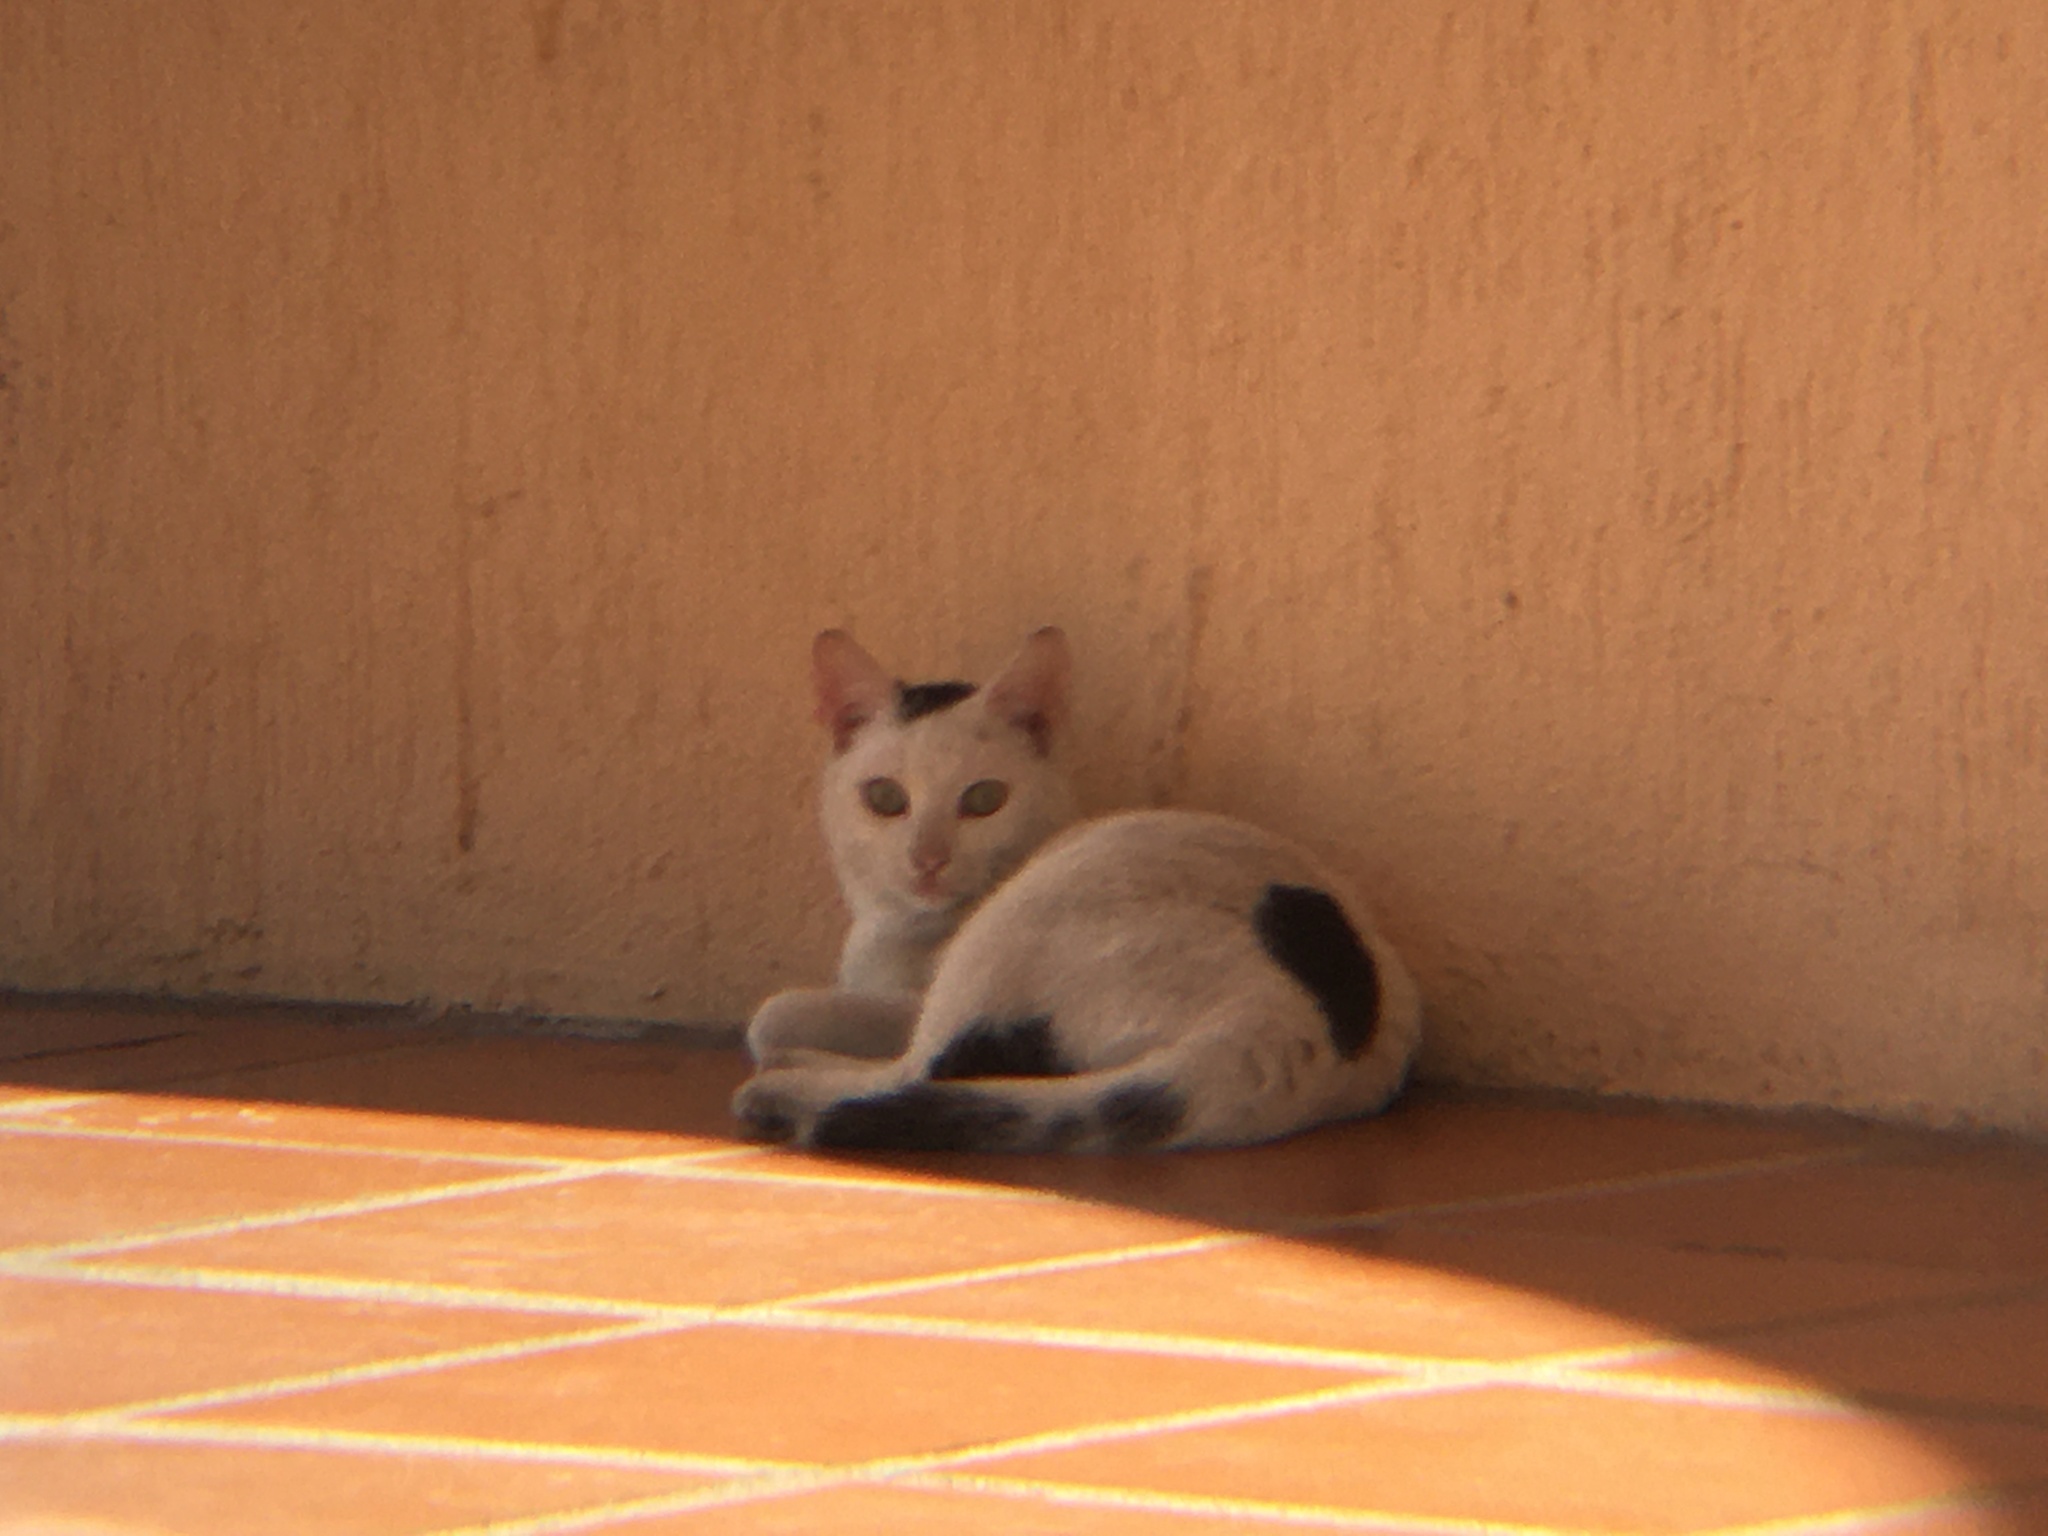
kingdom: Animalia
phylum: Chordata
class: Mammalia
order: Carnivora
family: Felidae
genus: Felis
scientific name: Felis catus
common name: Domestic cat
